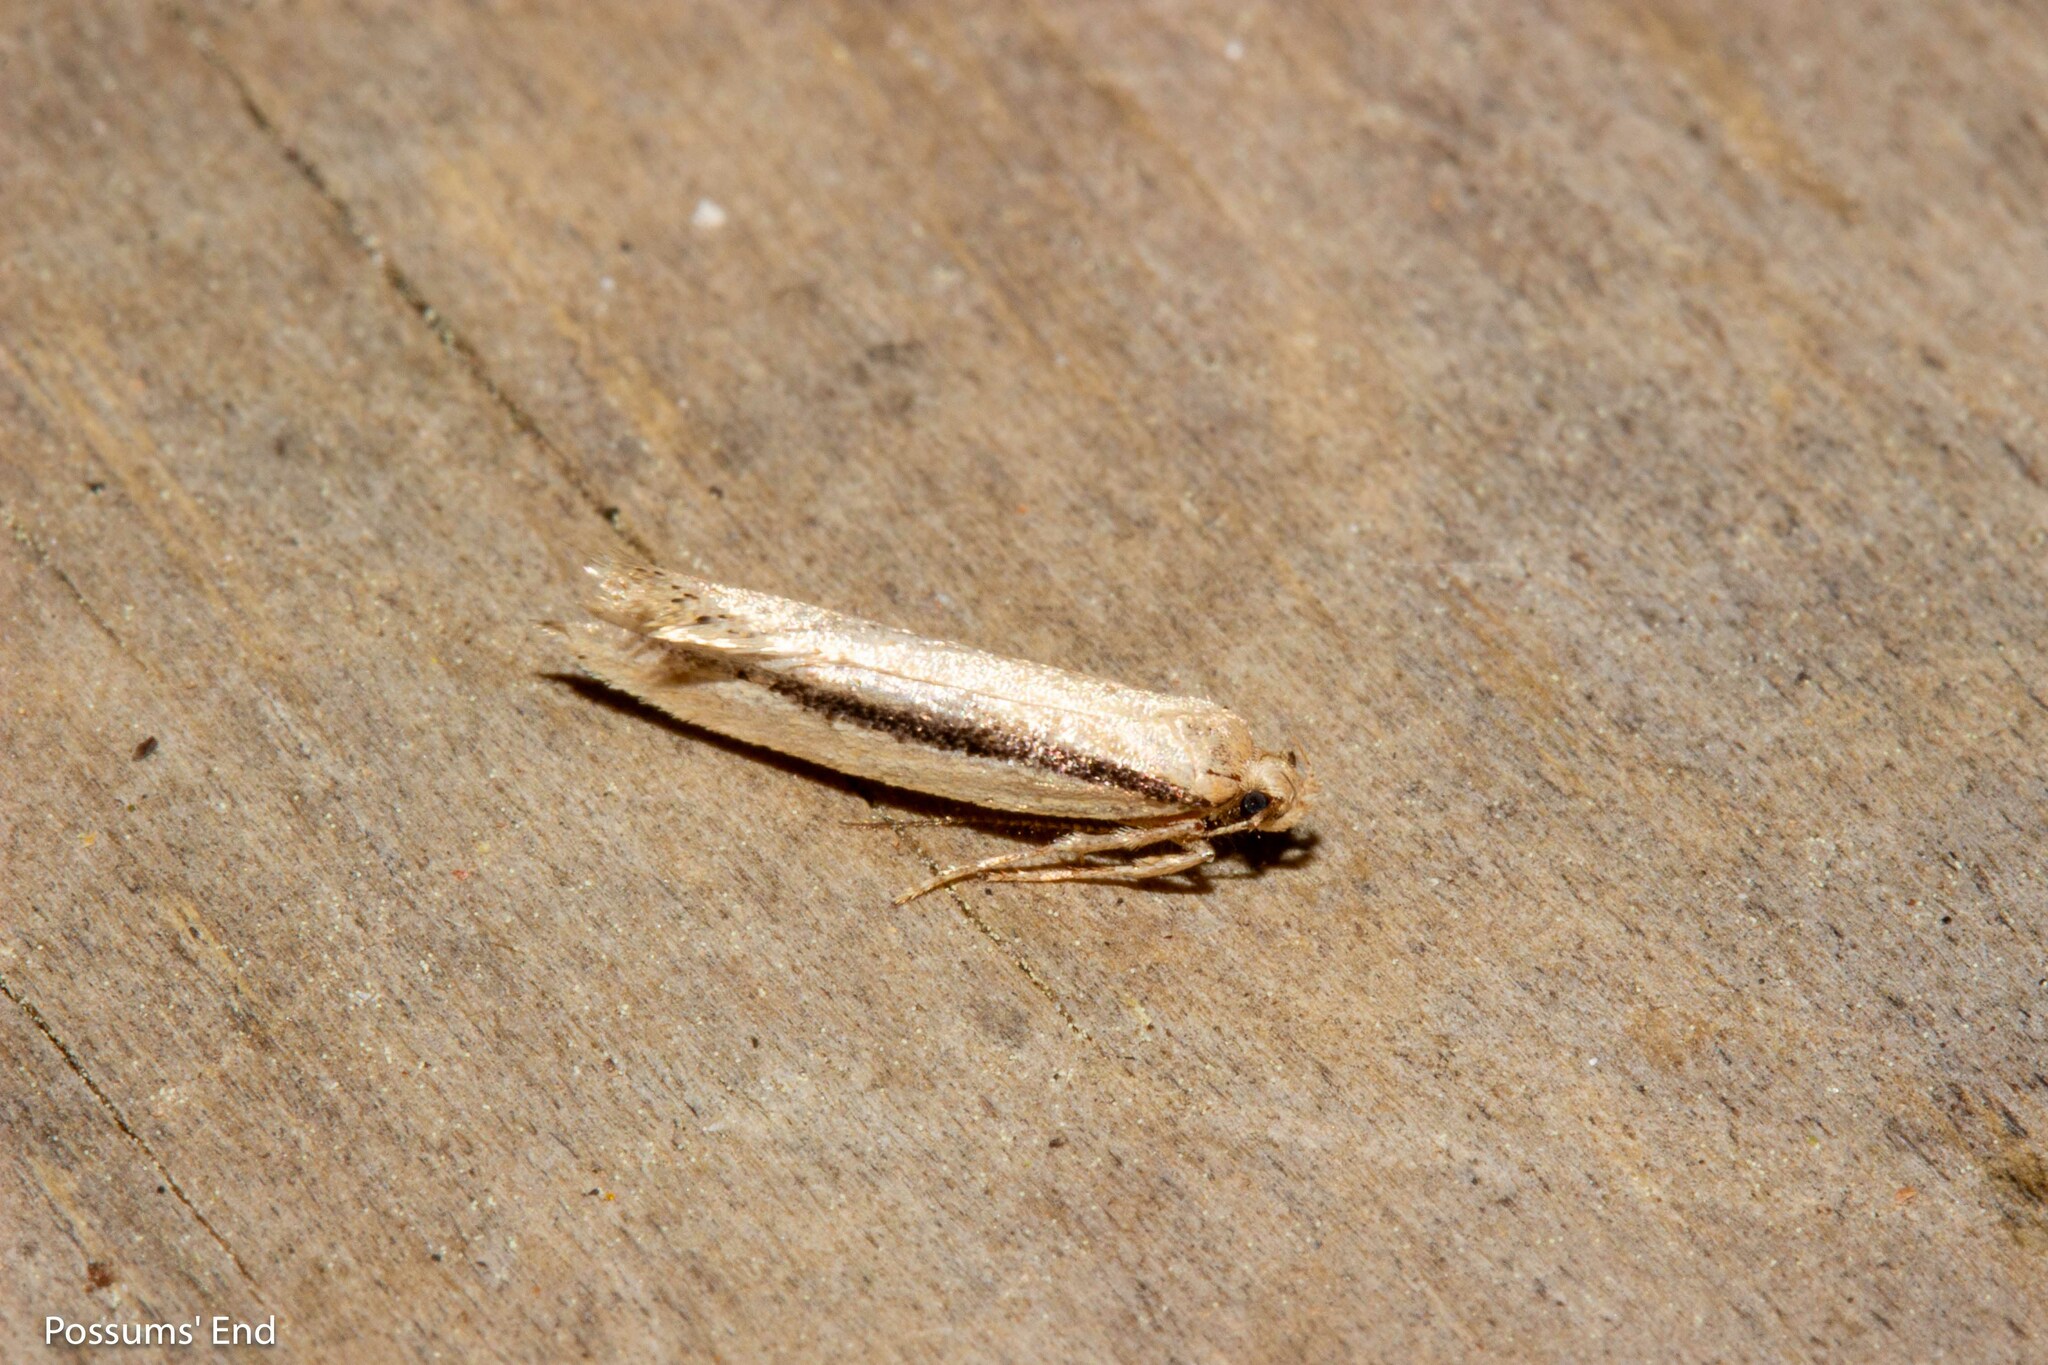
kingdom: Animalia
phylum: Arthropoda
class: Insecta
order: Lepidoptera
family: Oecophoridae
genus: Atomotricha
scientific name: Atomotricha versuta
